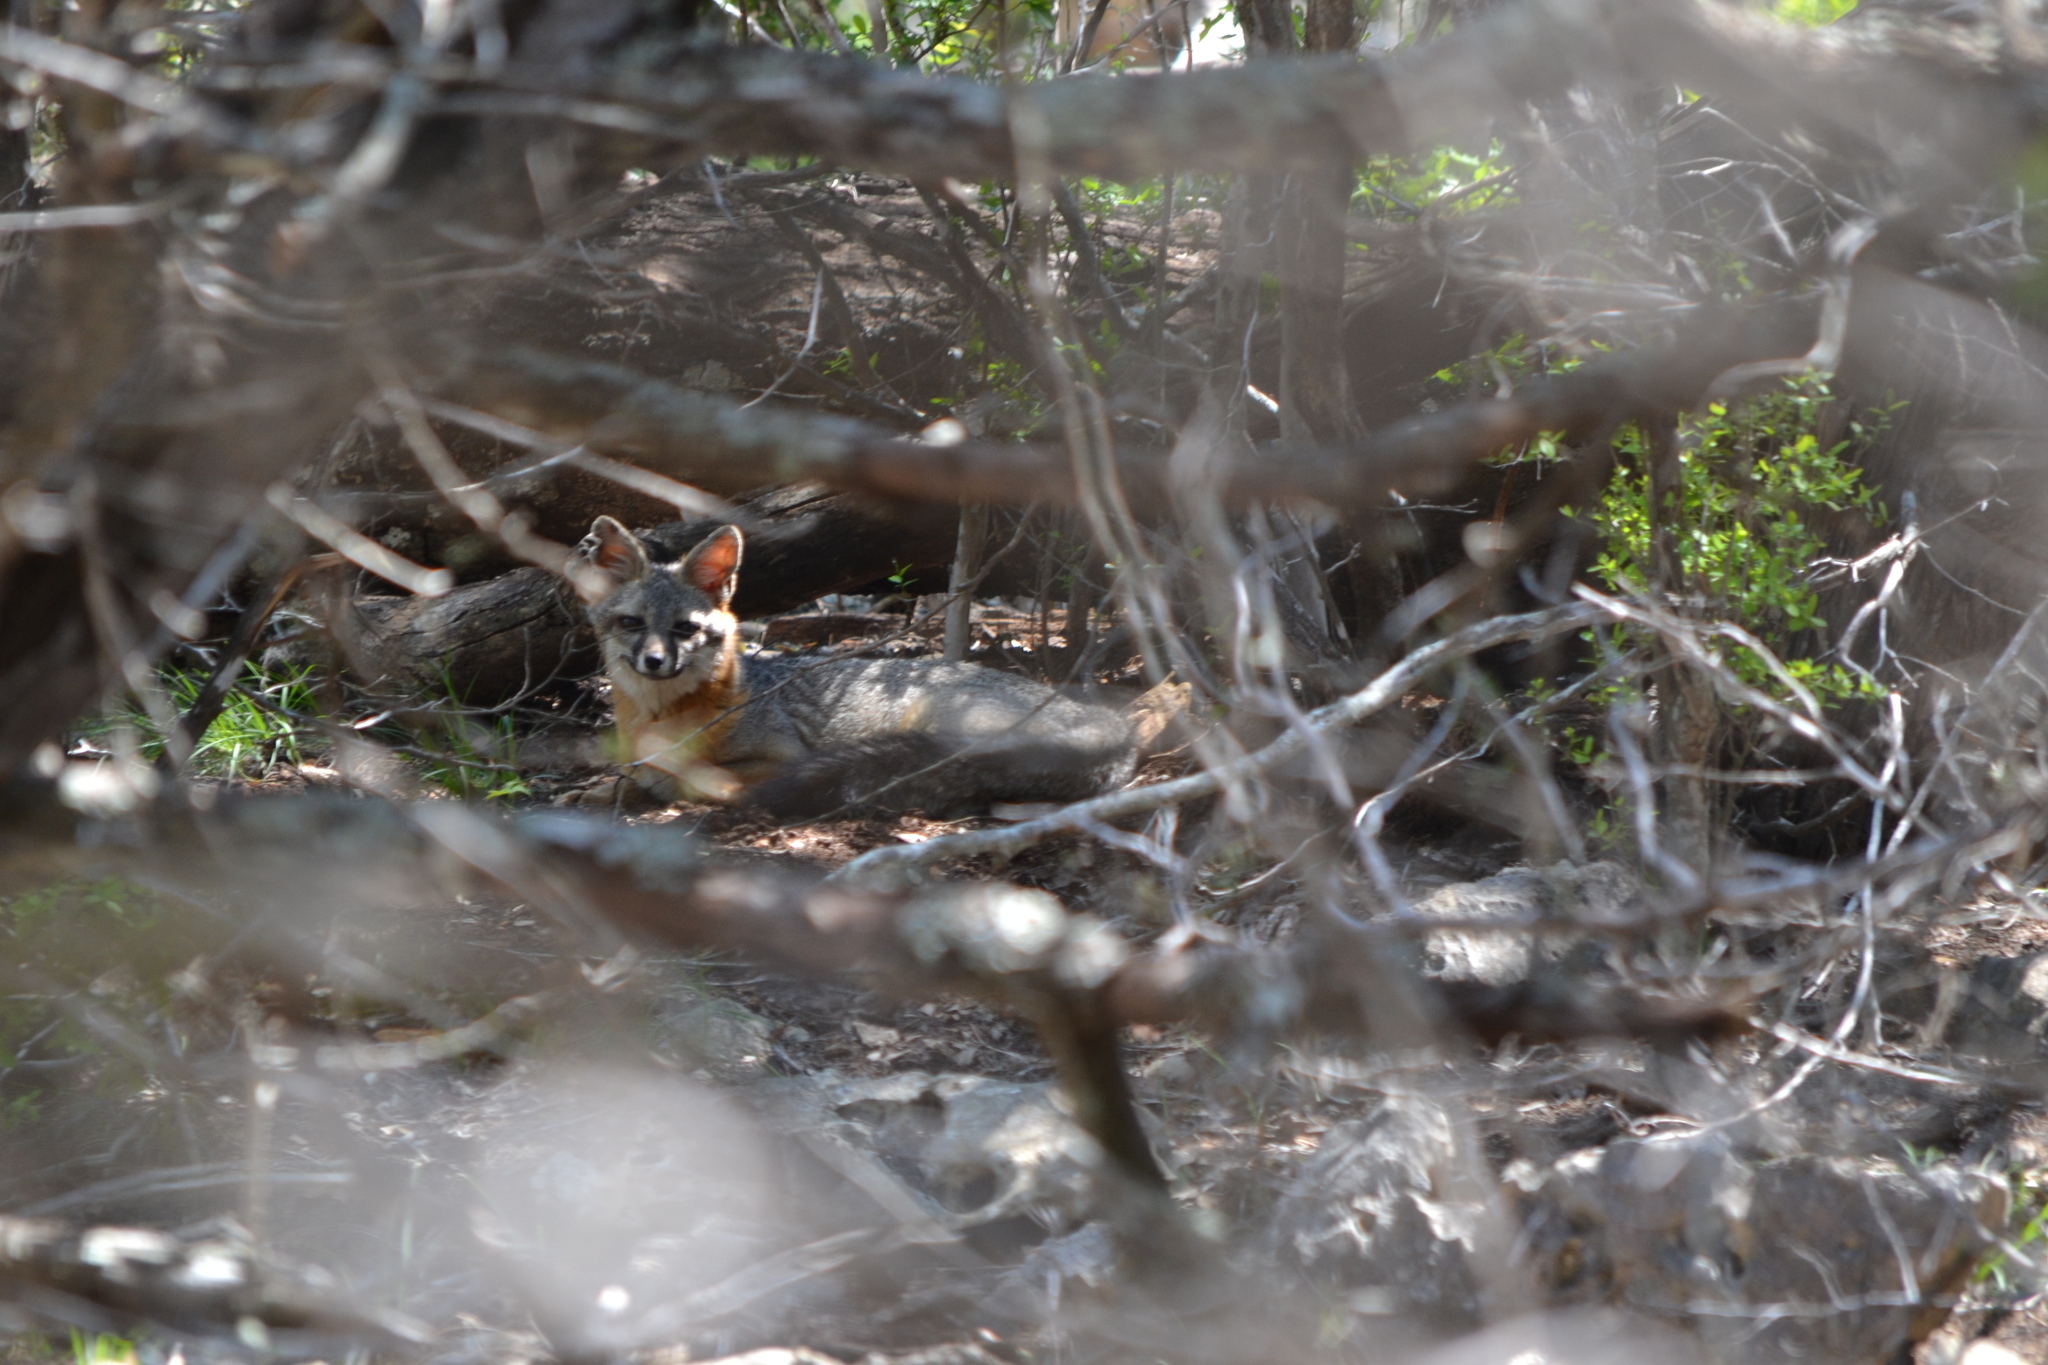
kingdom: Animalia
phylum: Chordata
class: Mammalia
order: Carnivora
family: Canidae
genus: Urocyon
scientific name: Urocyon cinereoargenteus
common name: Gray fox
